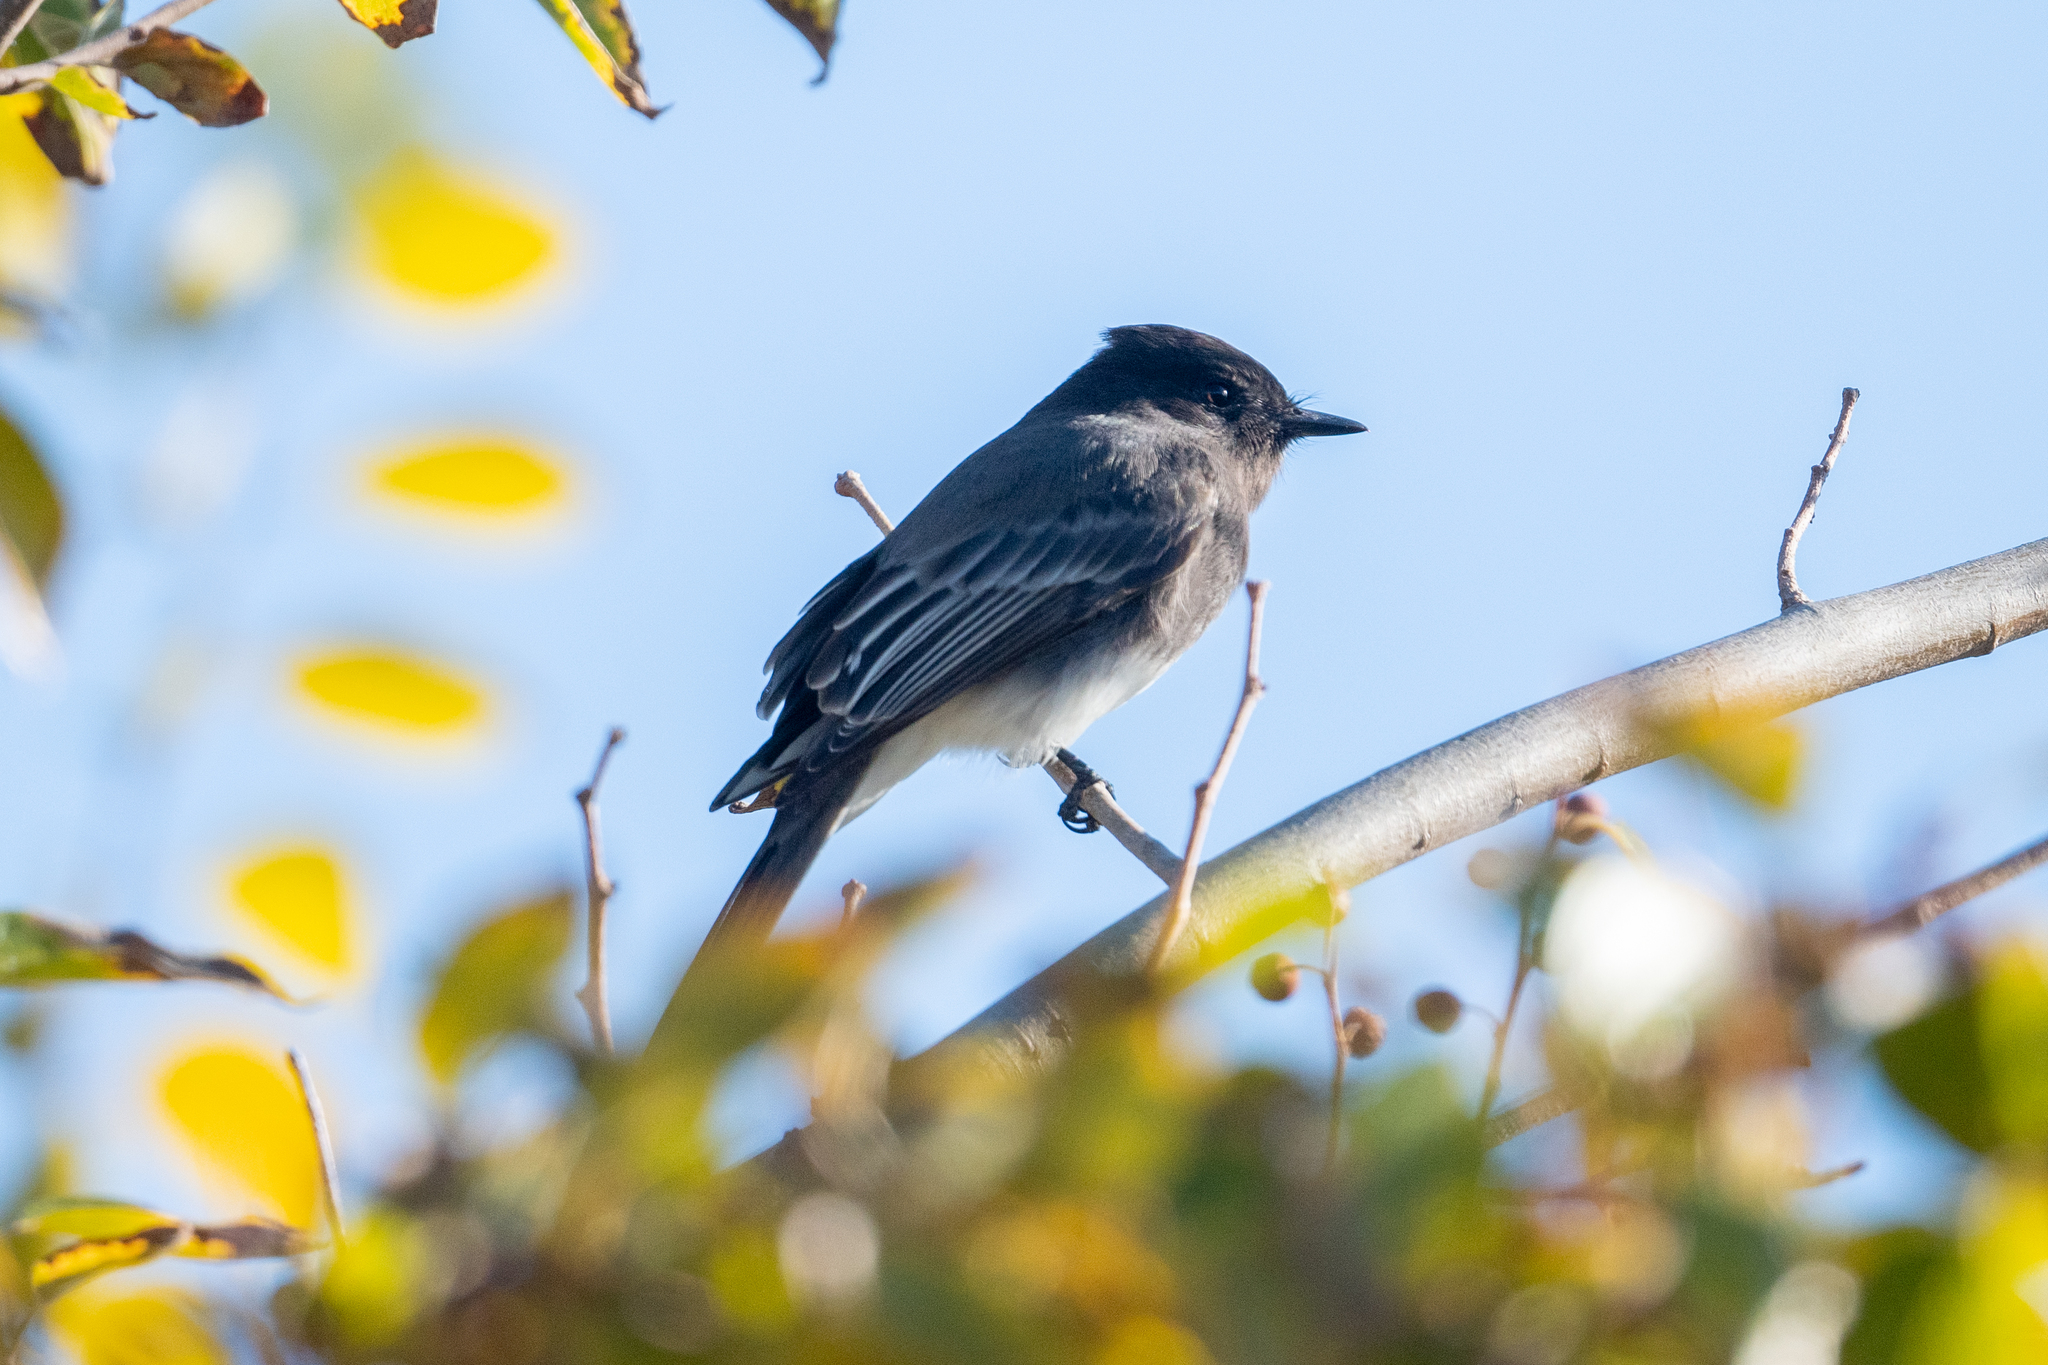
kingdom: Animalia
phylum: Chordata
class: Aves
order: Passeriformes
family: Tyrannidae
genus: Sayornis
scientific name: Sayornis nigricans
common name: Black phoebe
